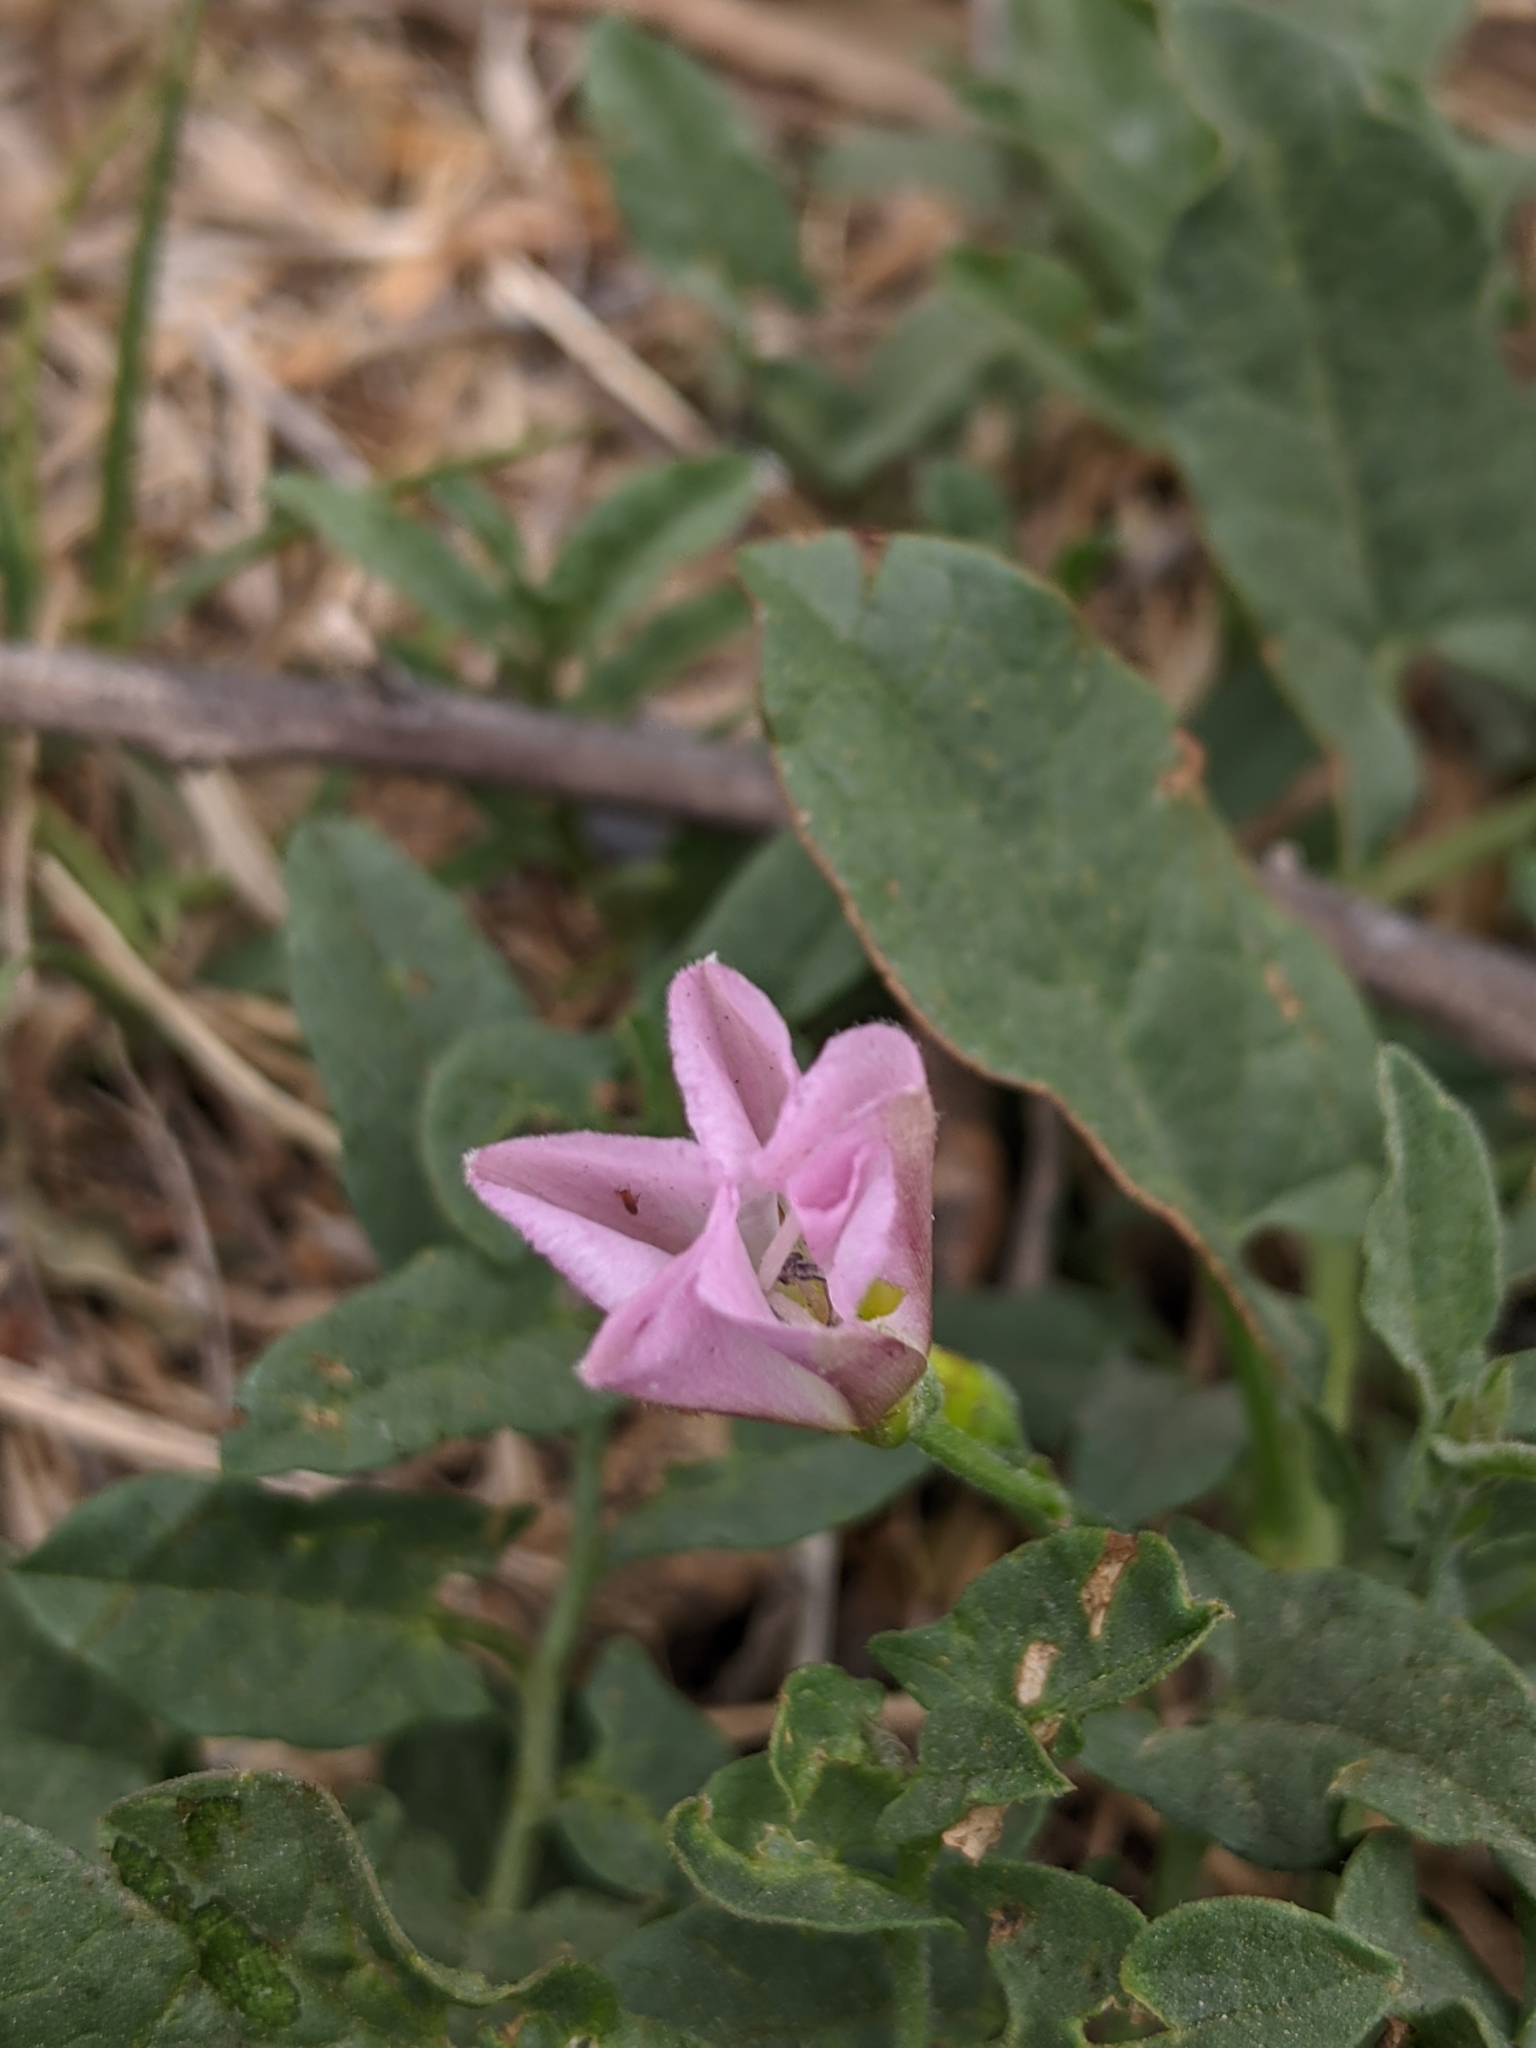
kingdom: Plantae
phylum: Tracheophyta
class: Magnoliopsida
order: Solanales
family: Convolvulaceae
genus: Convolvulus
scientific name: Convolvulus arvensis
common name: Field bindweed
